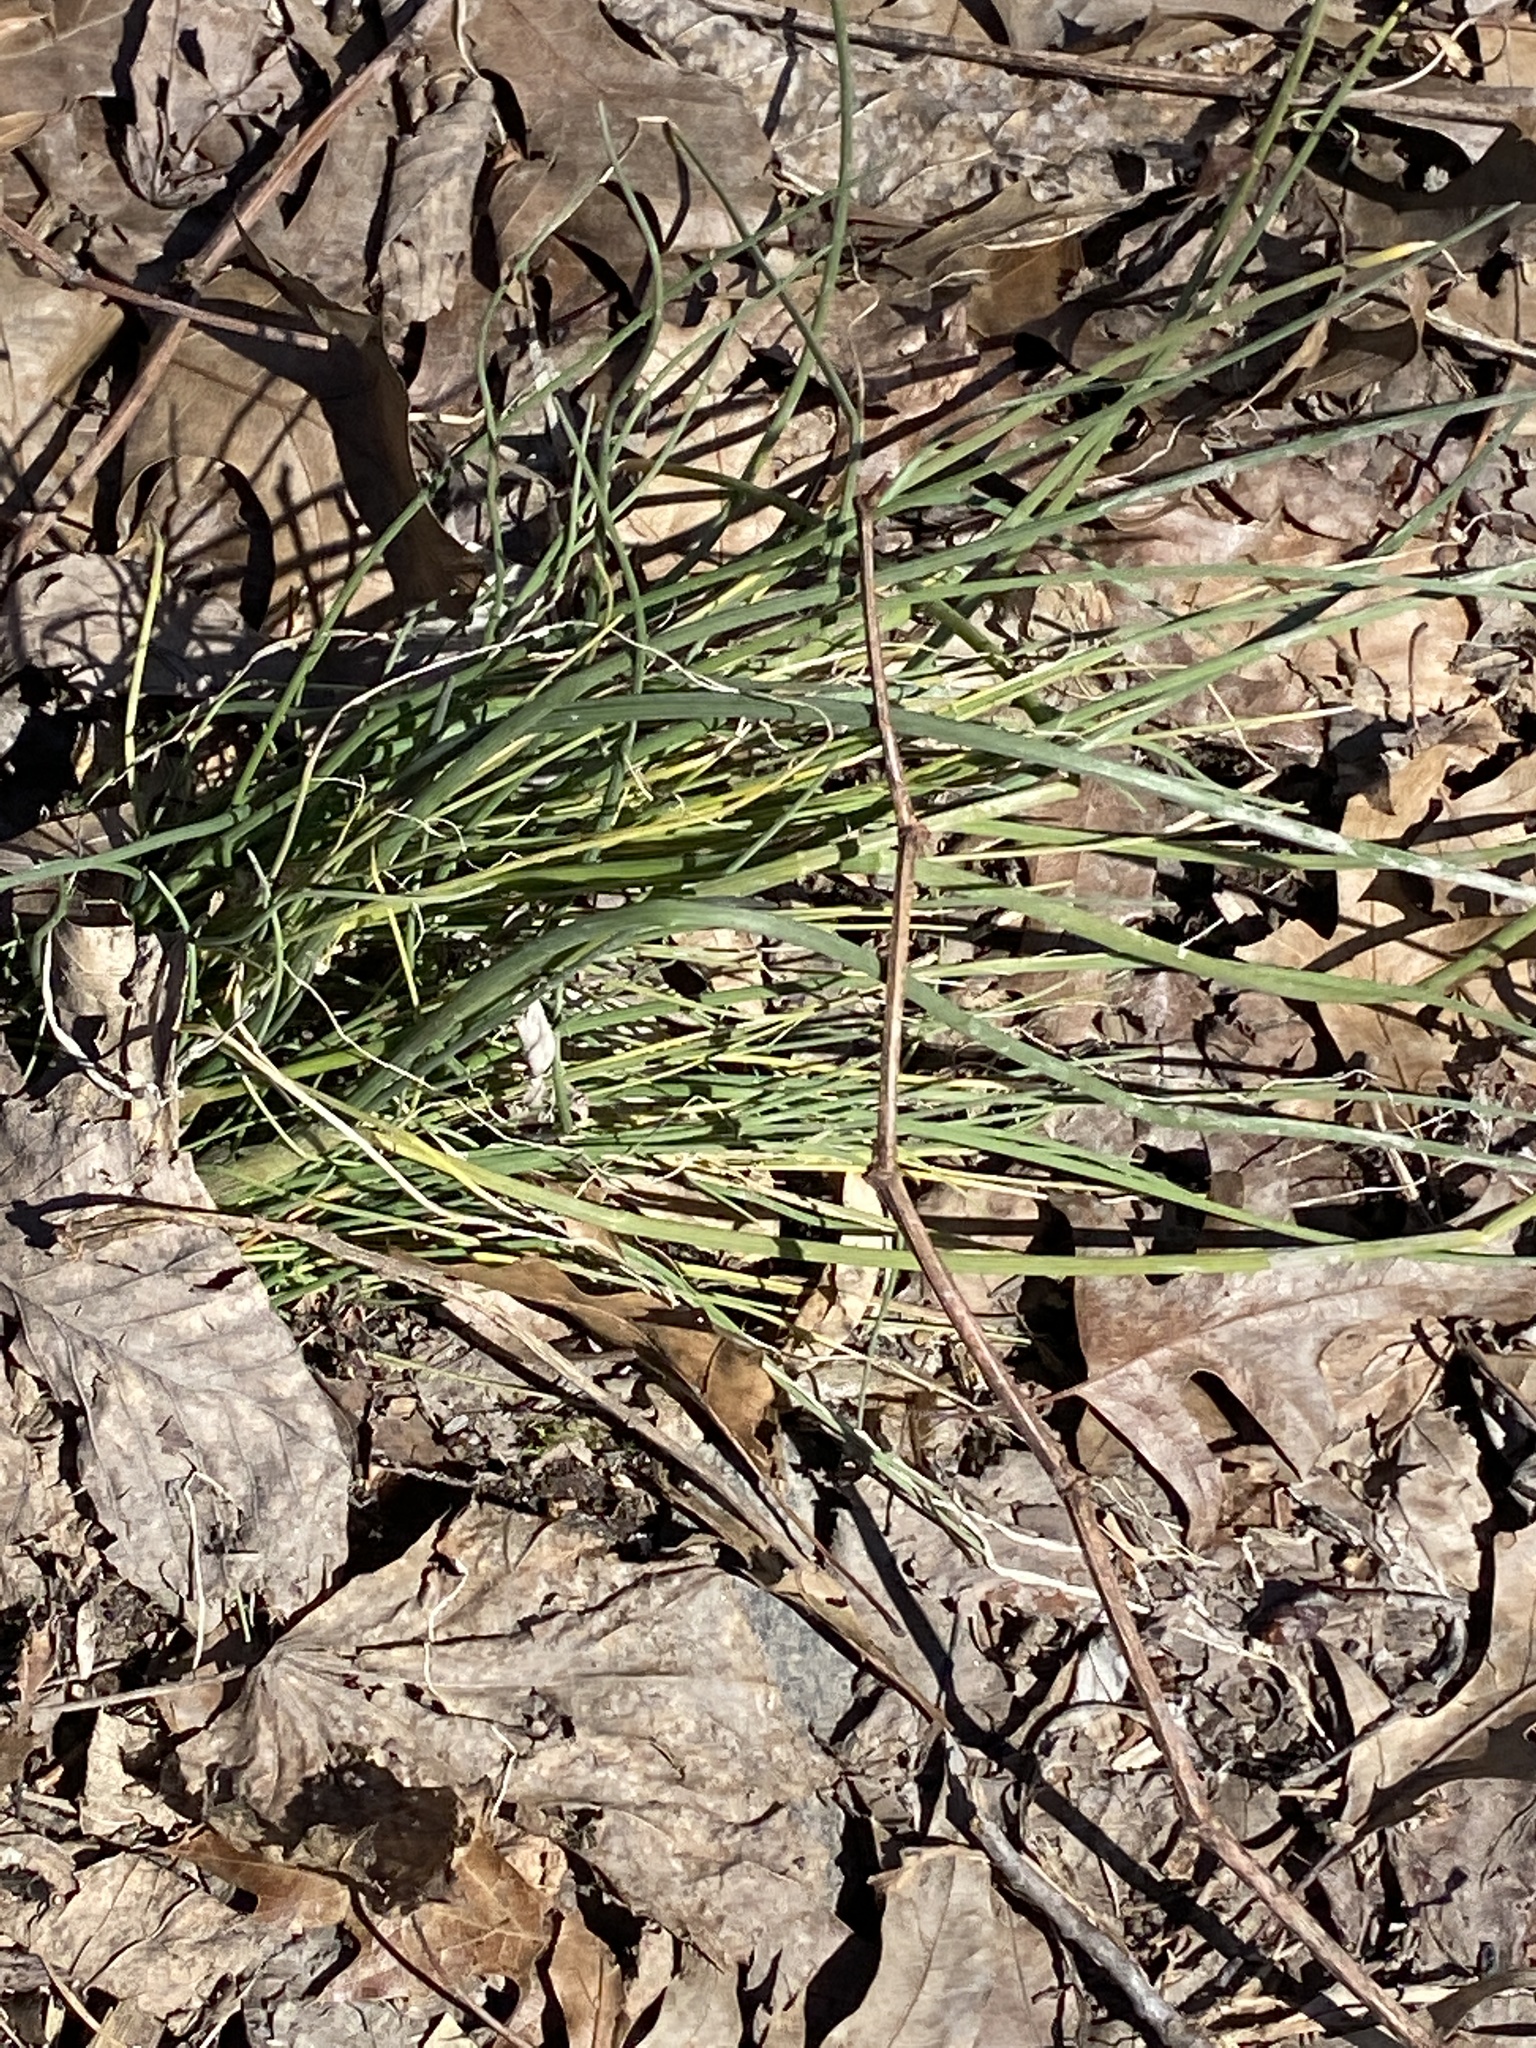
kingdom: Plantae
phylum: Tracheophyta
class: Liliopsida
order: Asparagales
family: Amaryllidaceae
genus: Allium
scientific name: Allium vineale
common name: Crow garlic
